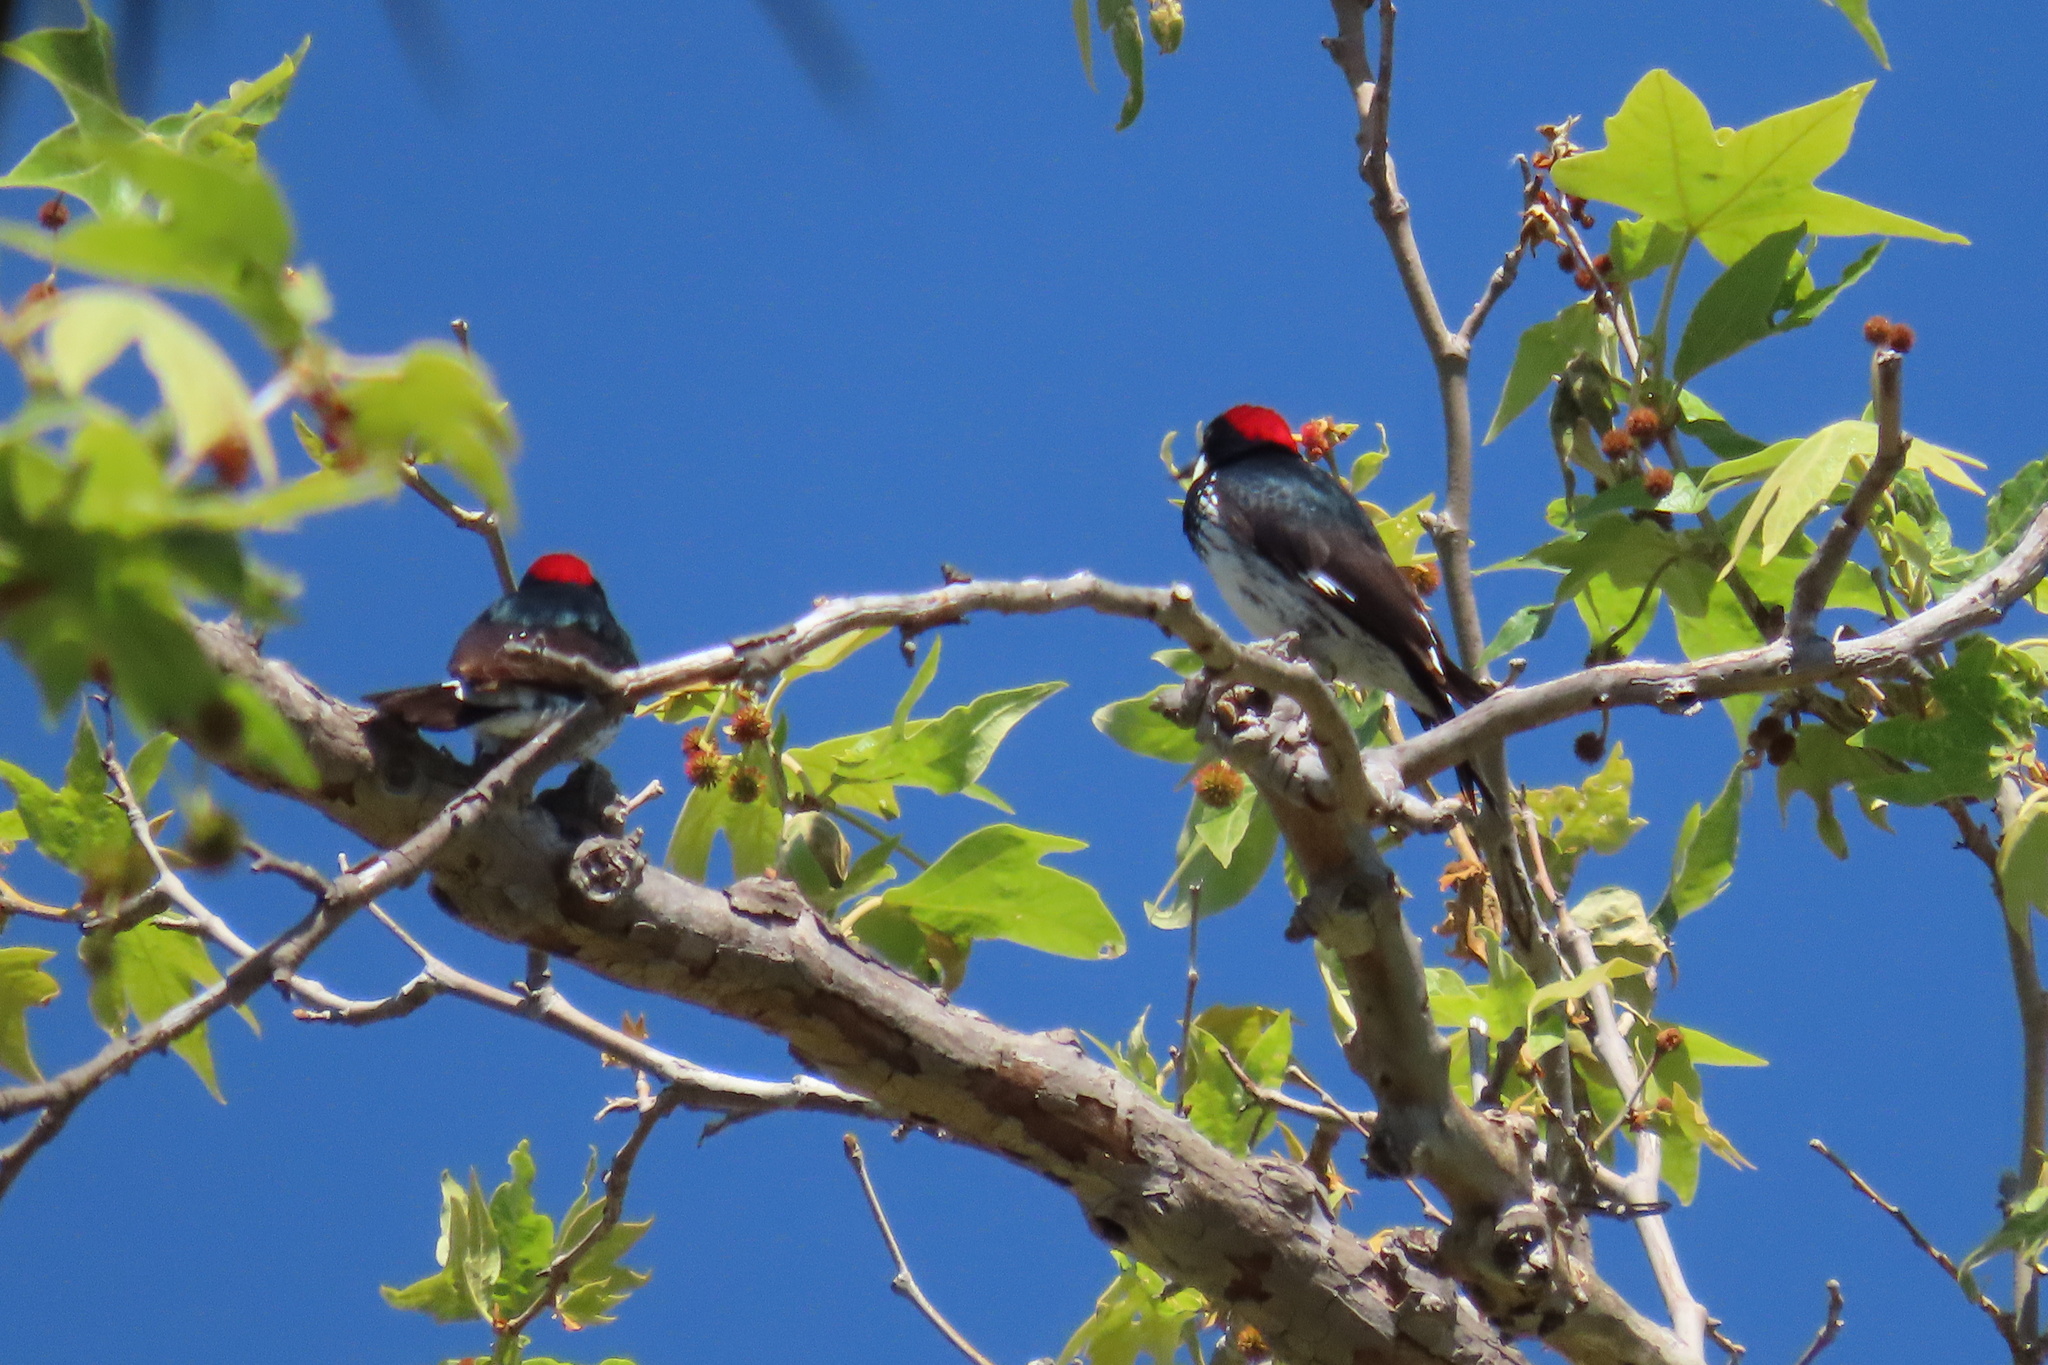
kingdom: Animalia
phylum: Chordata
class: Aves
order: Piciformes
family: Picidae
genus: Melanerpes
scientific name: Melanerpes formicivorus
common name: Acorn woodpecker
